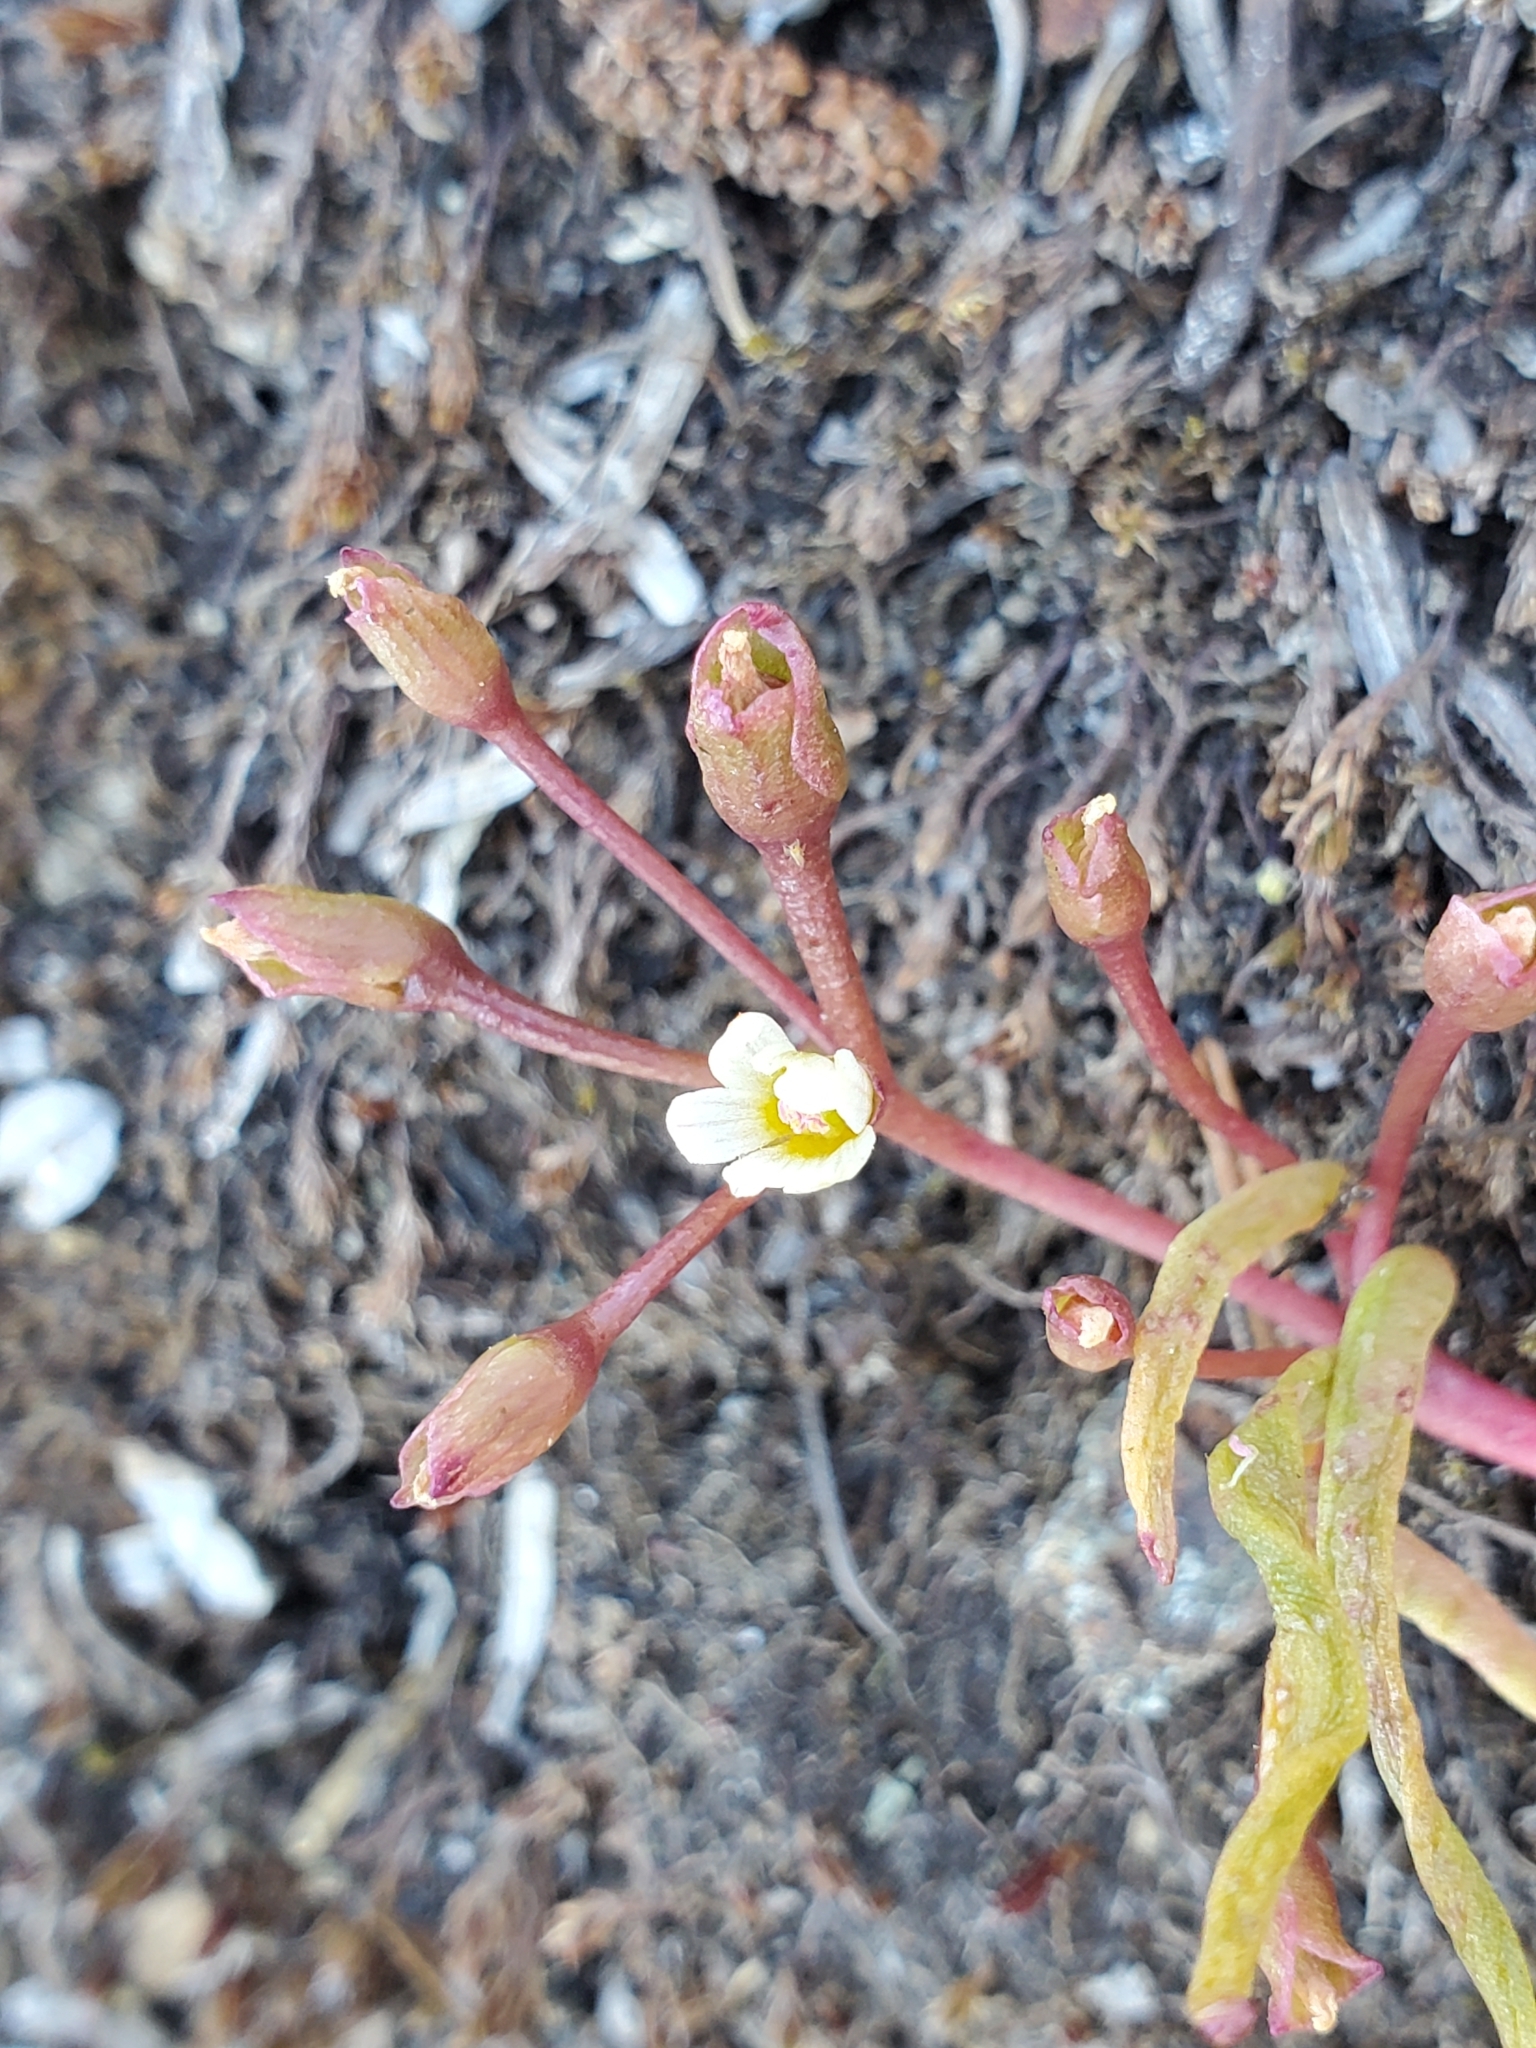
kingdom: Plantae
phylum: Tracheophyta
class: Magnoliopsida
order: Caryophyllales
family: Montiaceae
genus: Lewisia
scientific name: Lewisia triphylla
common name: Three-leaved bitterroot
